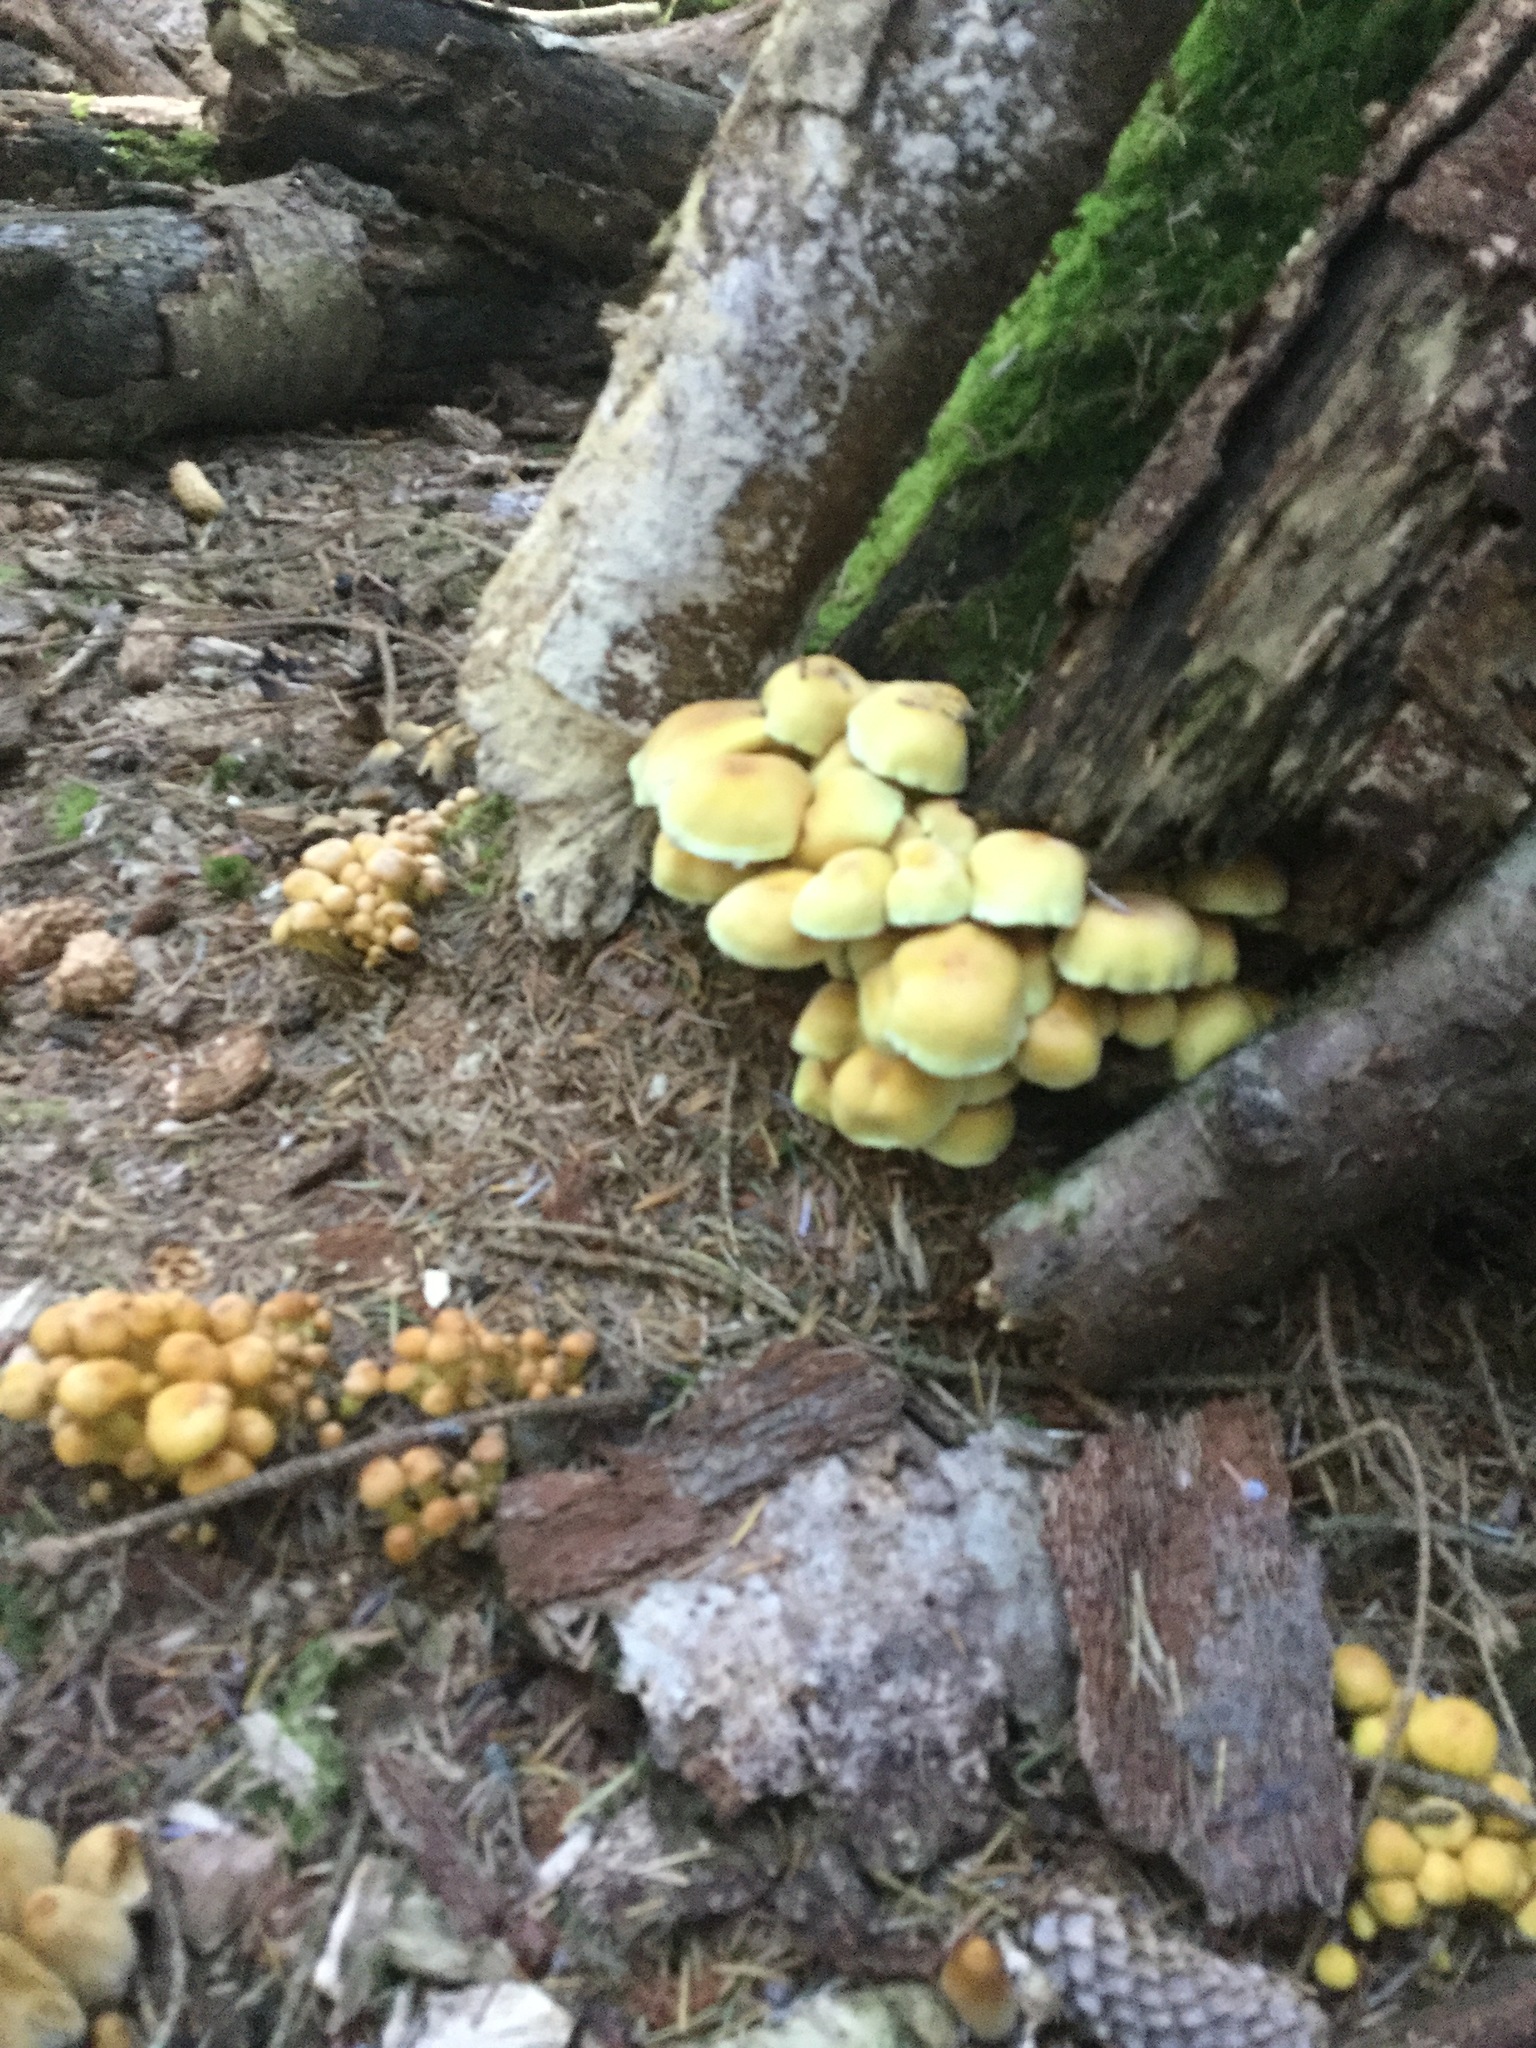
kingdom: Fungi
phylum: Basidiomycota
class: Agaricomycetes
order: Agaricales
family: Strophariaceae
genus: Hypholoma
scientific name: Hypholoma fasciculare
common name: Sulphur tuft
